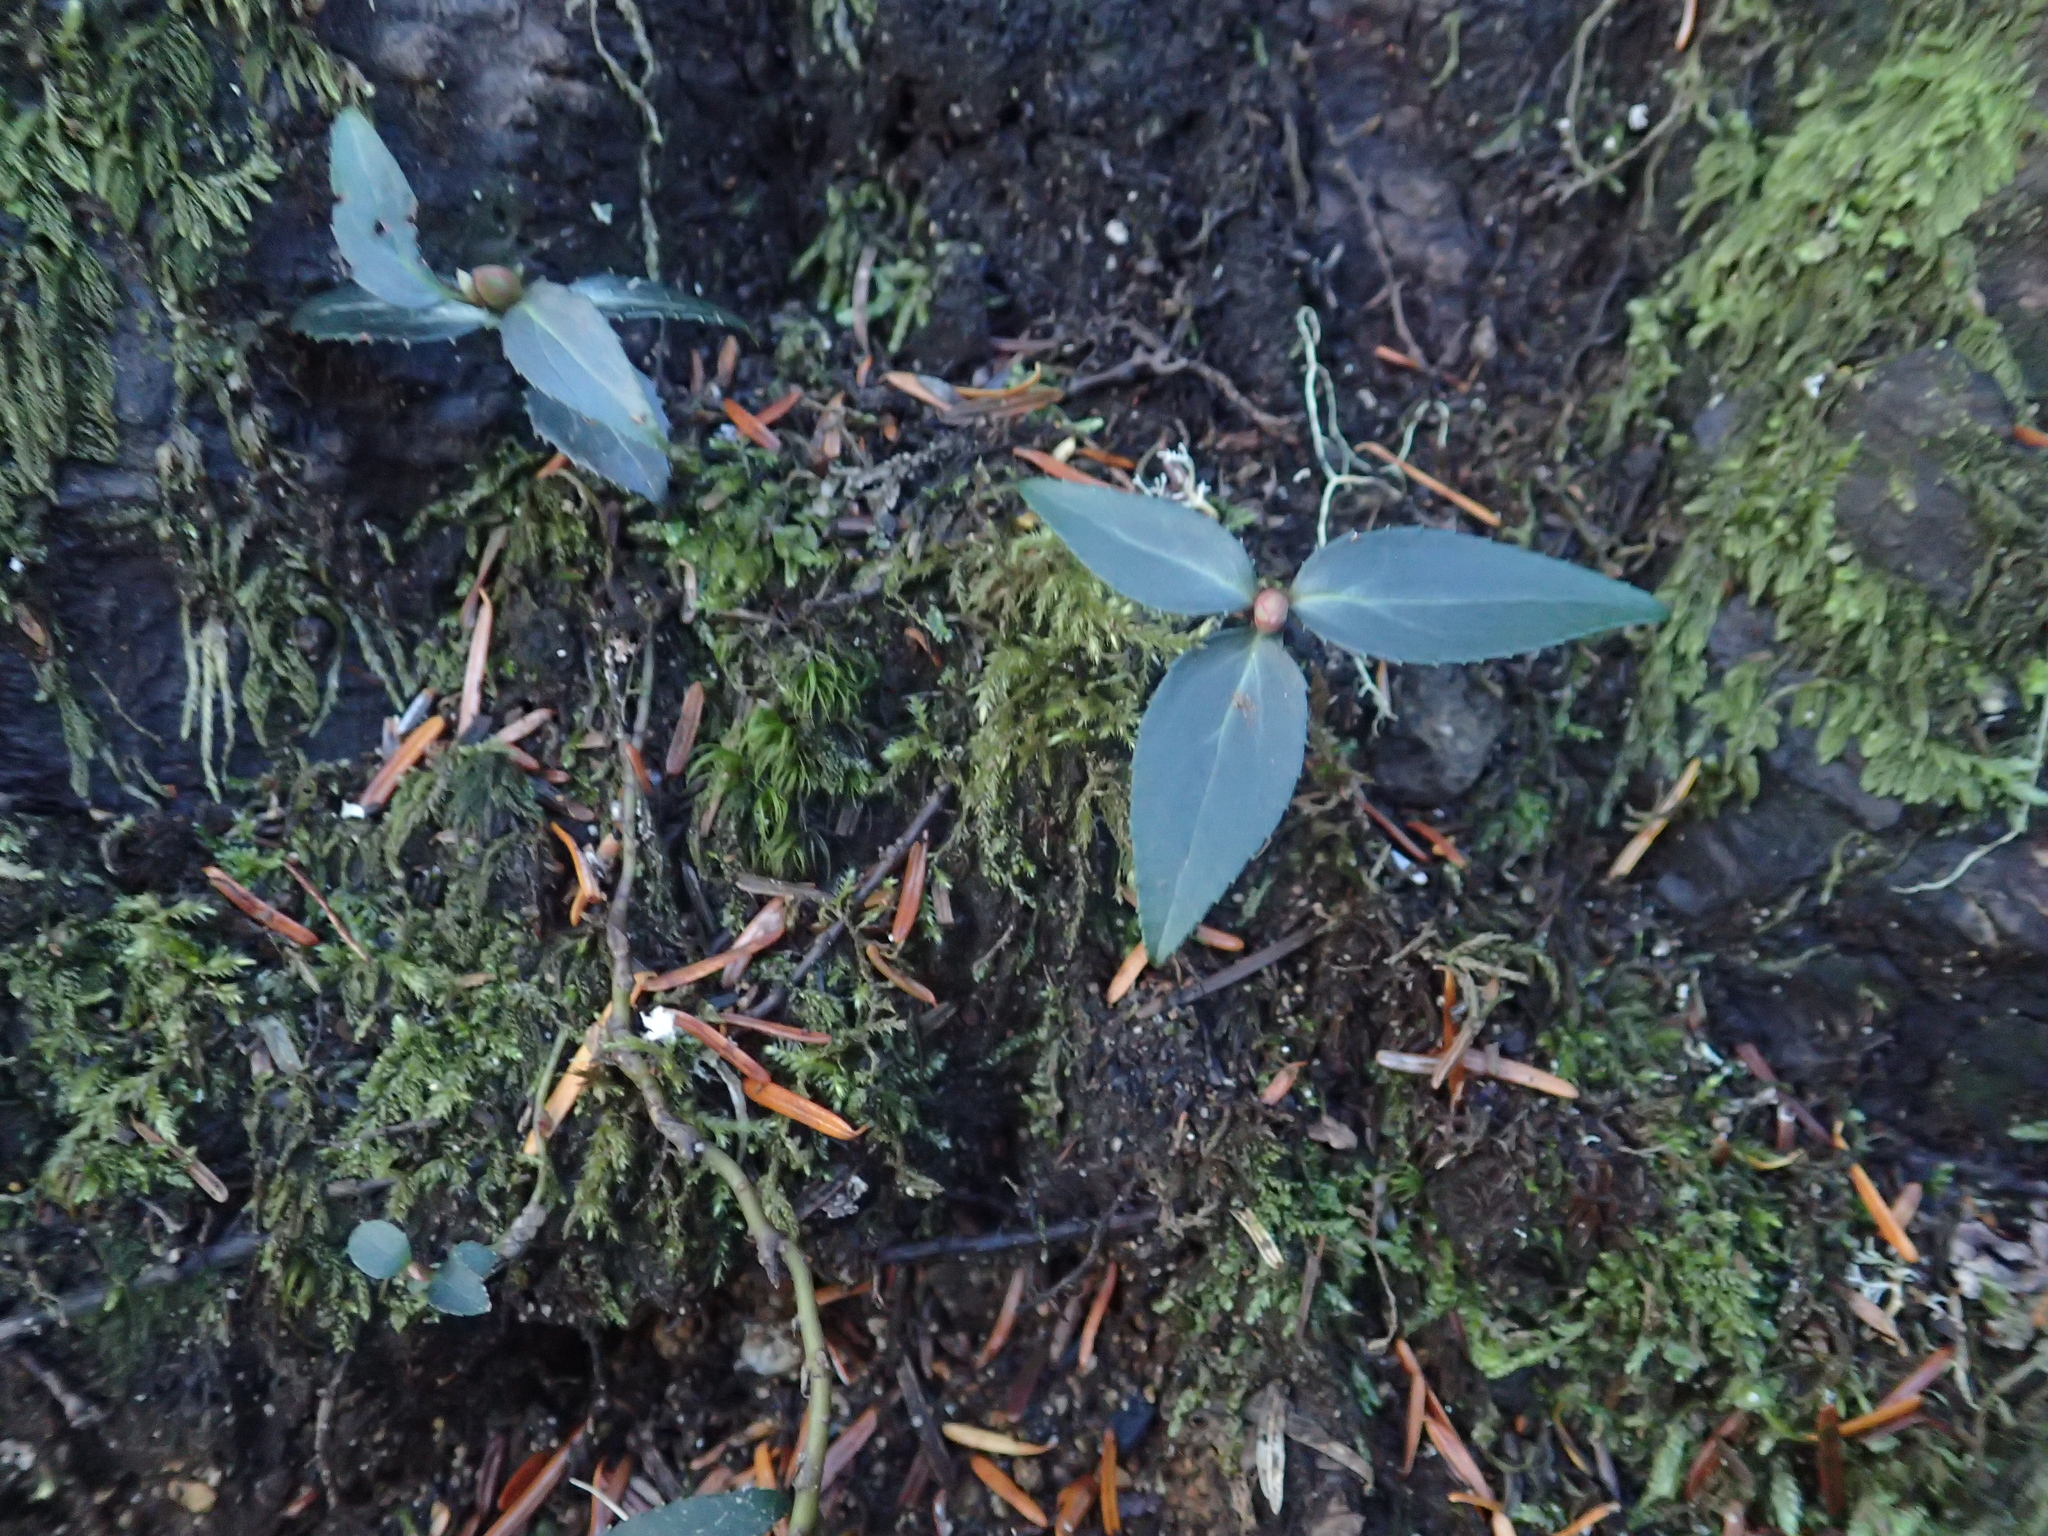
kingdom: Plantae
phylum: Tracheophyta
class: Magnoliopsida
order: Ericales
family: Ericaceae
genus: Chimaphila
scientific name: Chimaphila menziesii
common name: Menzies' pipsissewa
